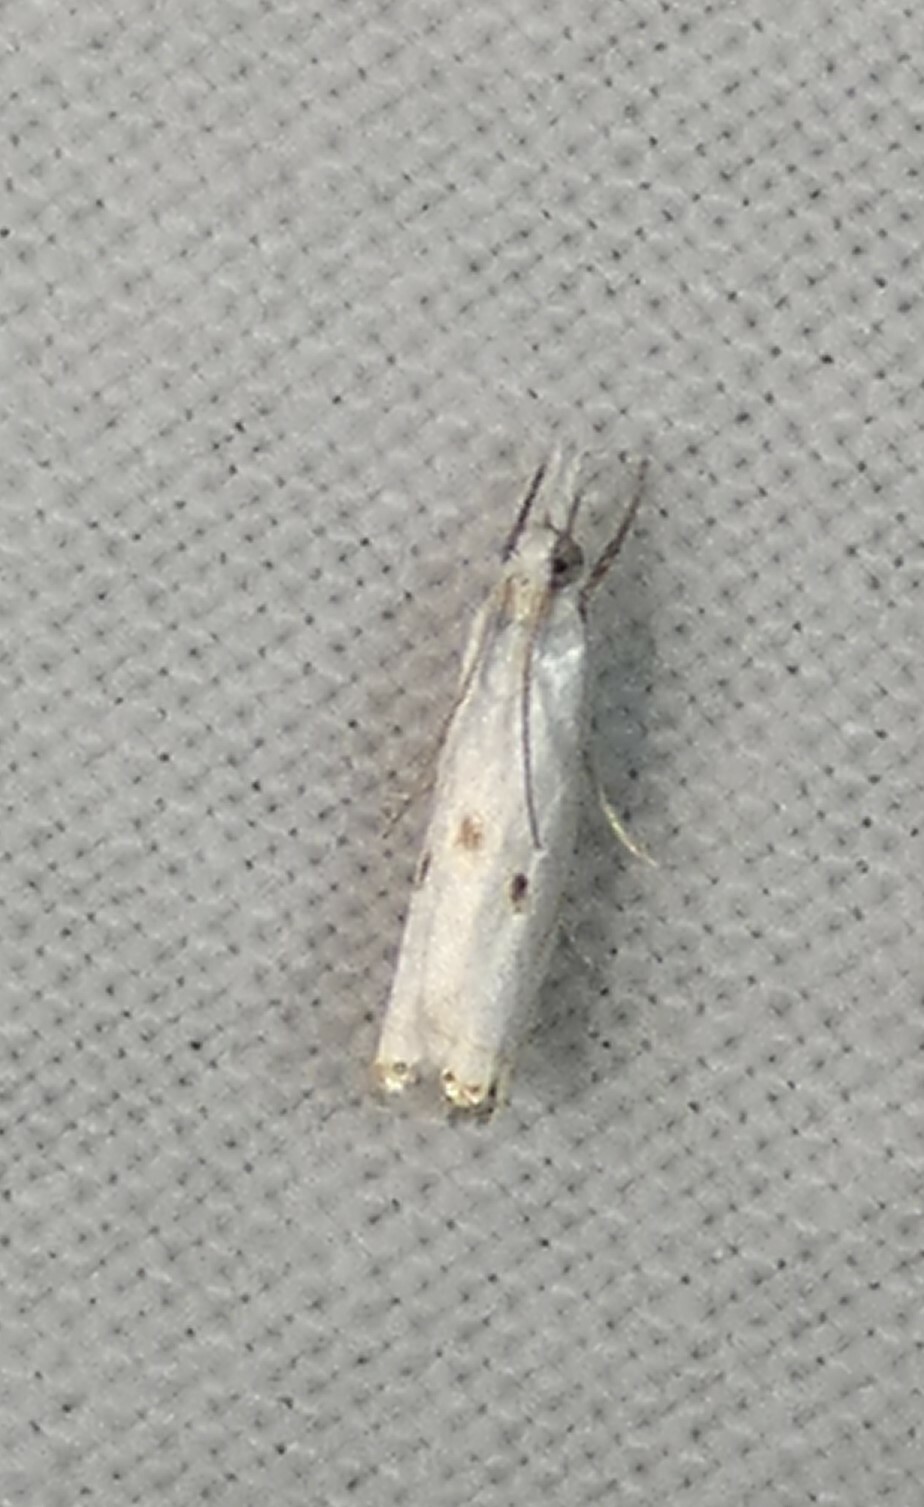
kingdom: Animalia
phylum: Arthropoda
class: Insecta
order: Lepidoptera
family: Crambidae
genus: Microcrambus
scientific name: Microcrambus biguttellus
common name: Gold-stripe grass-veneer moth
